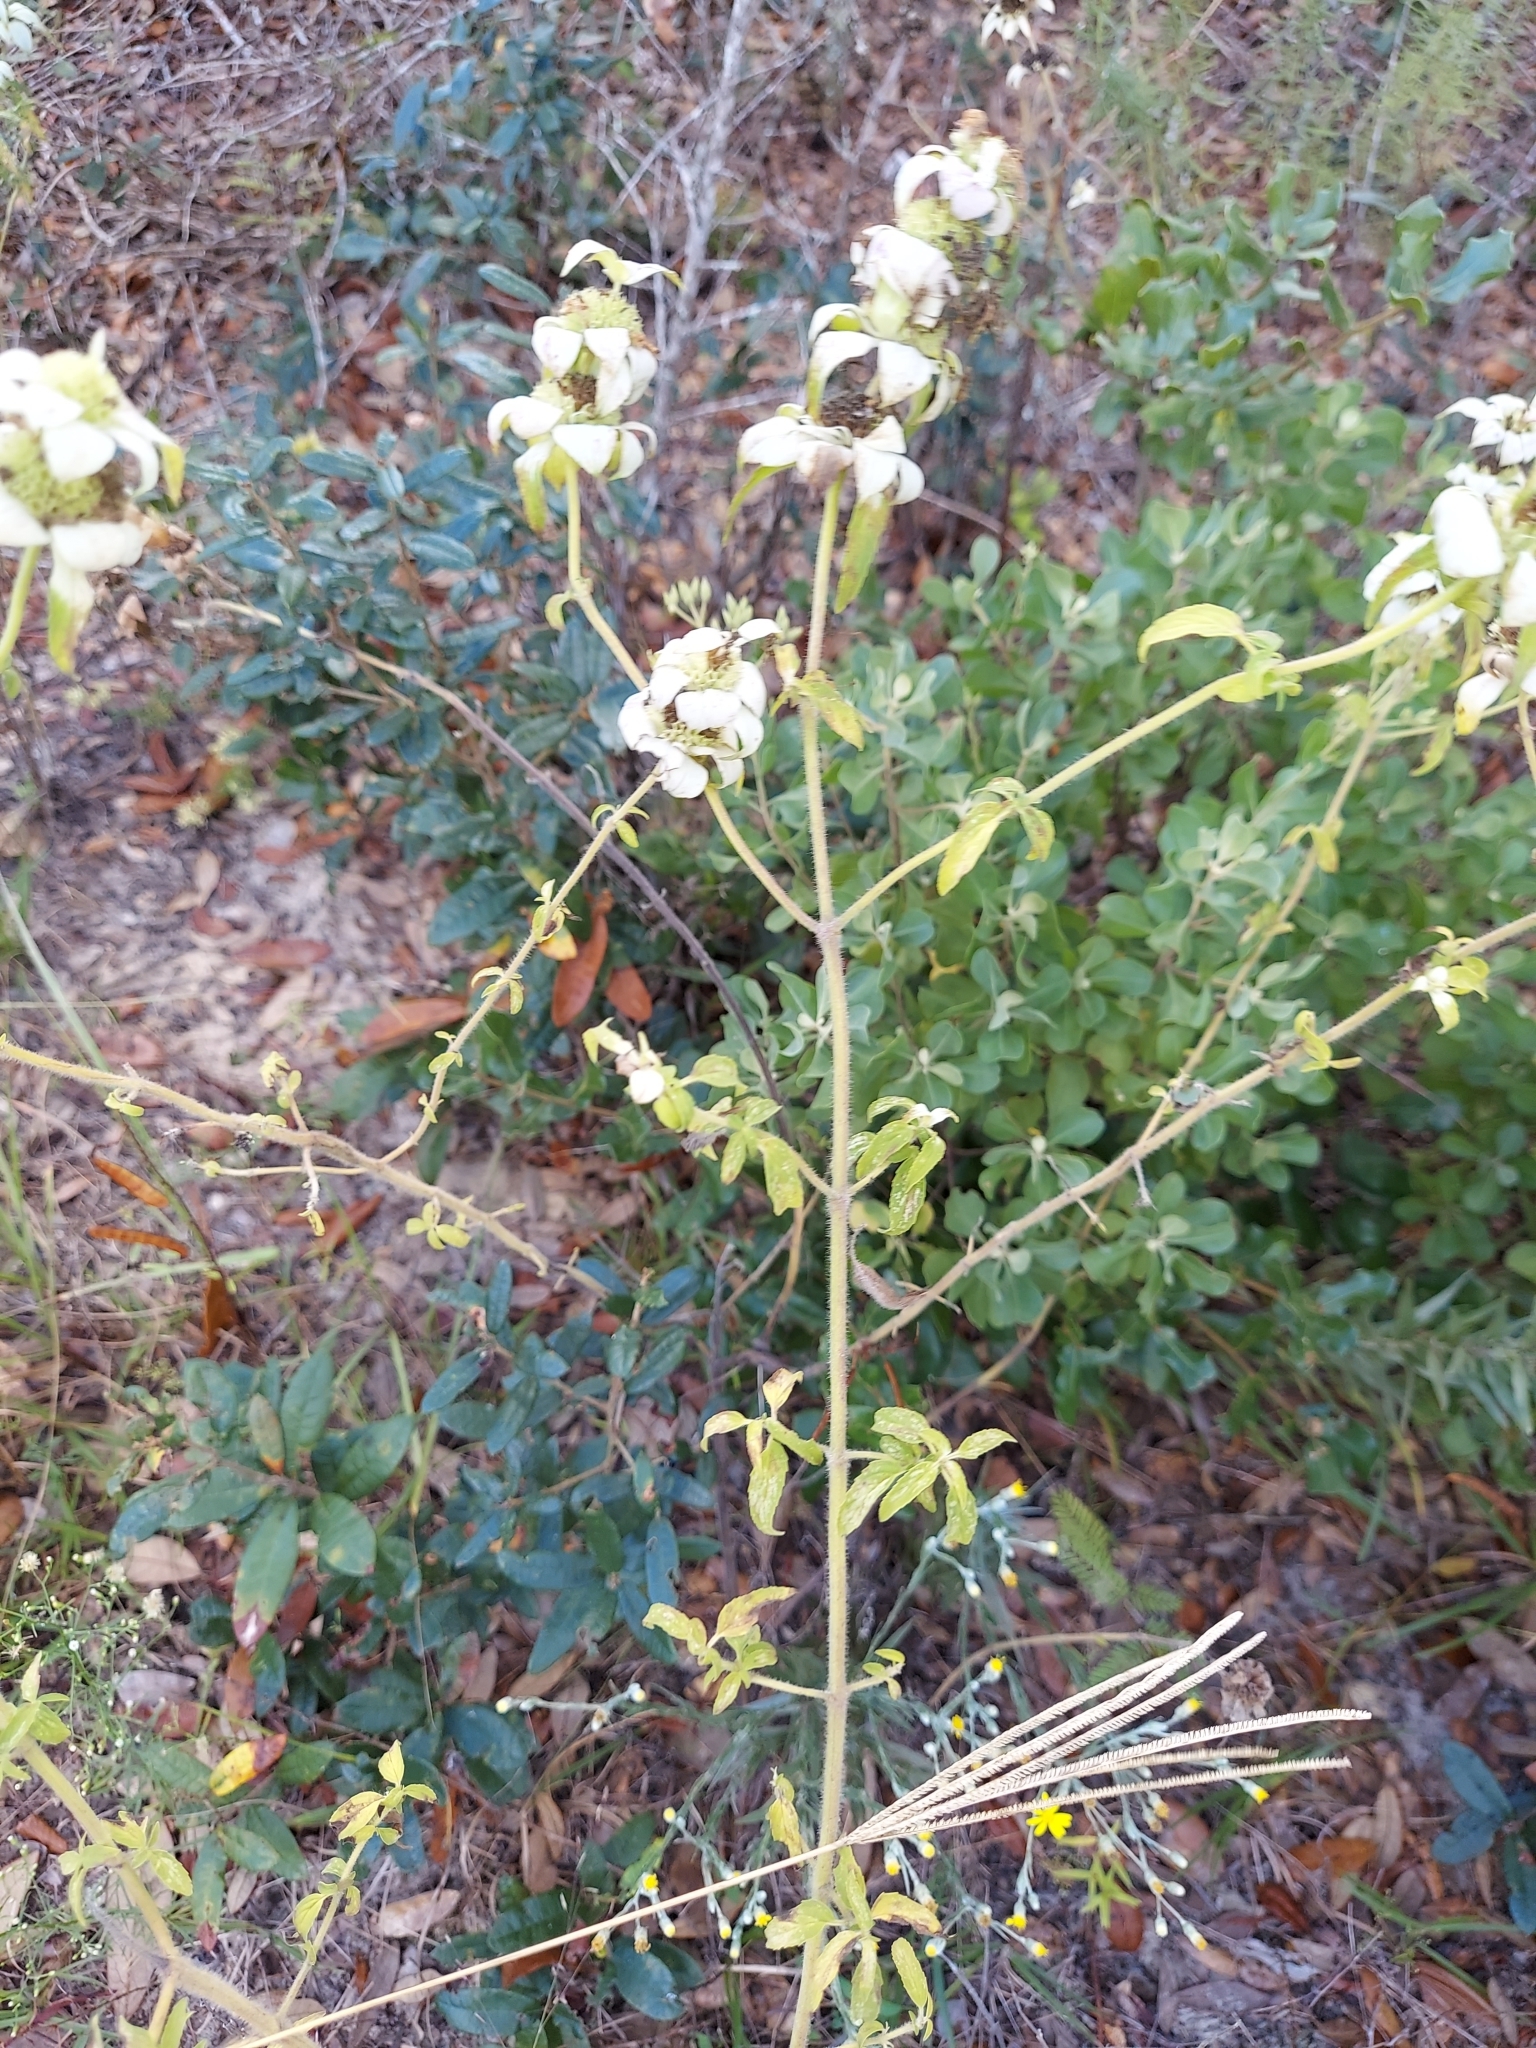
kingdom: Plantae
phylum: Tracheophyta
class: Magnoliopsida
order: Lamiales
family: Lamiaceae
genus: Monarda
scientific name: Monarda punctata
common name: Dotted monarda
